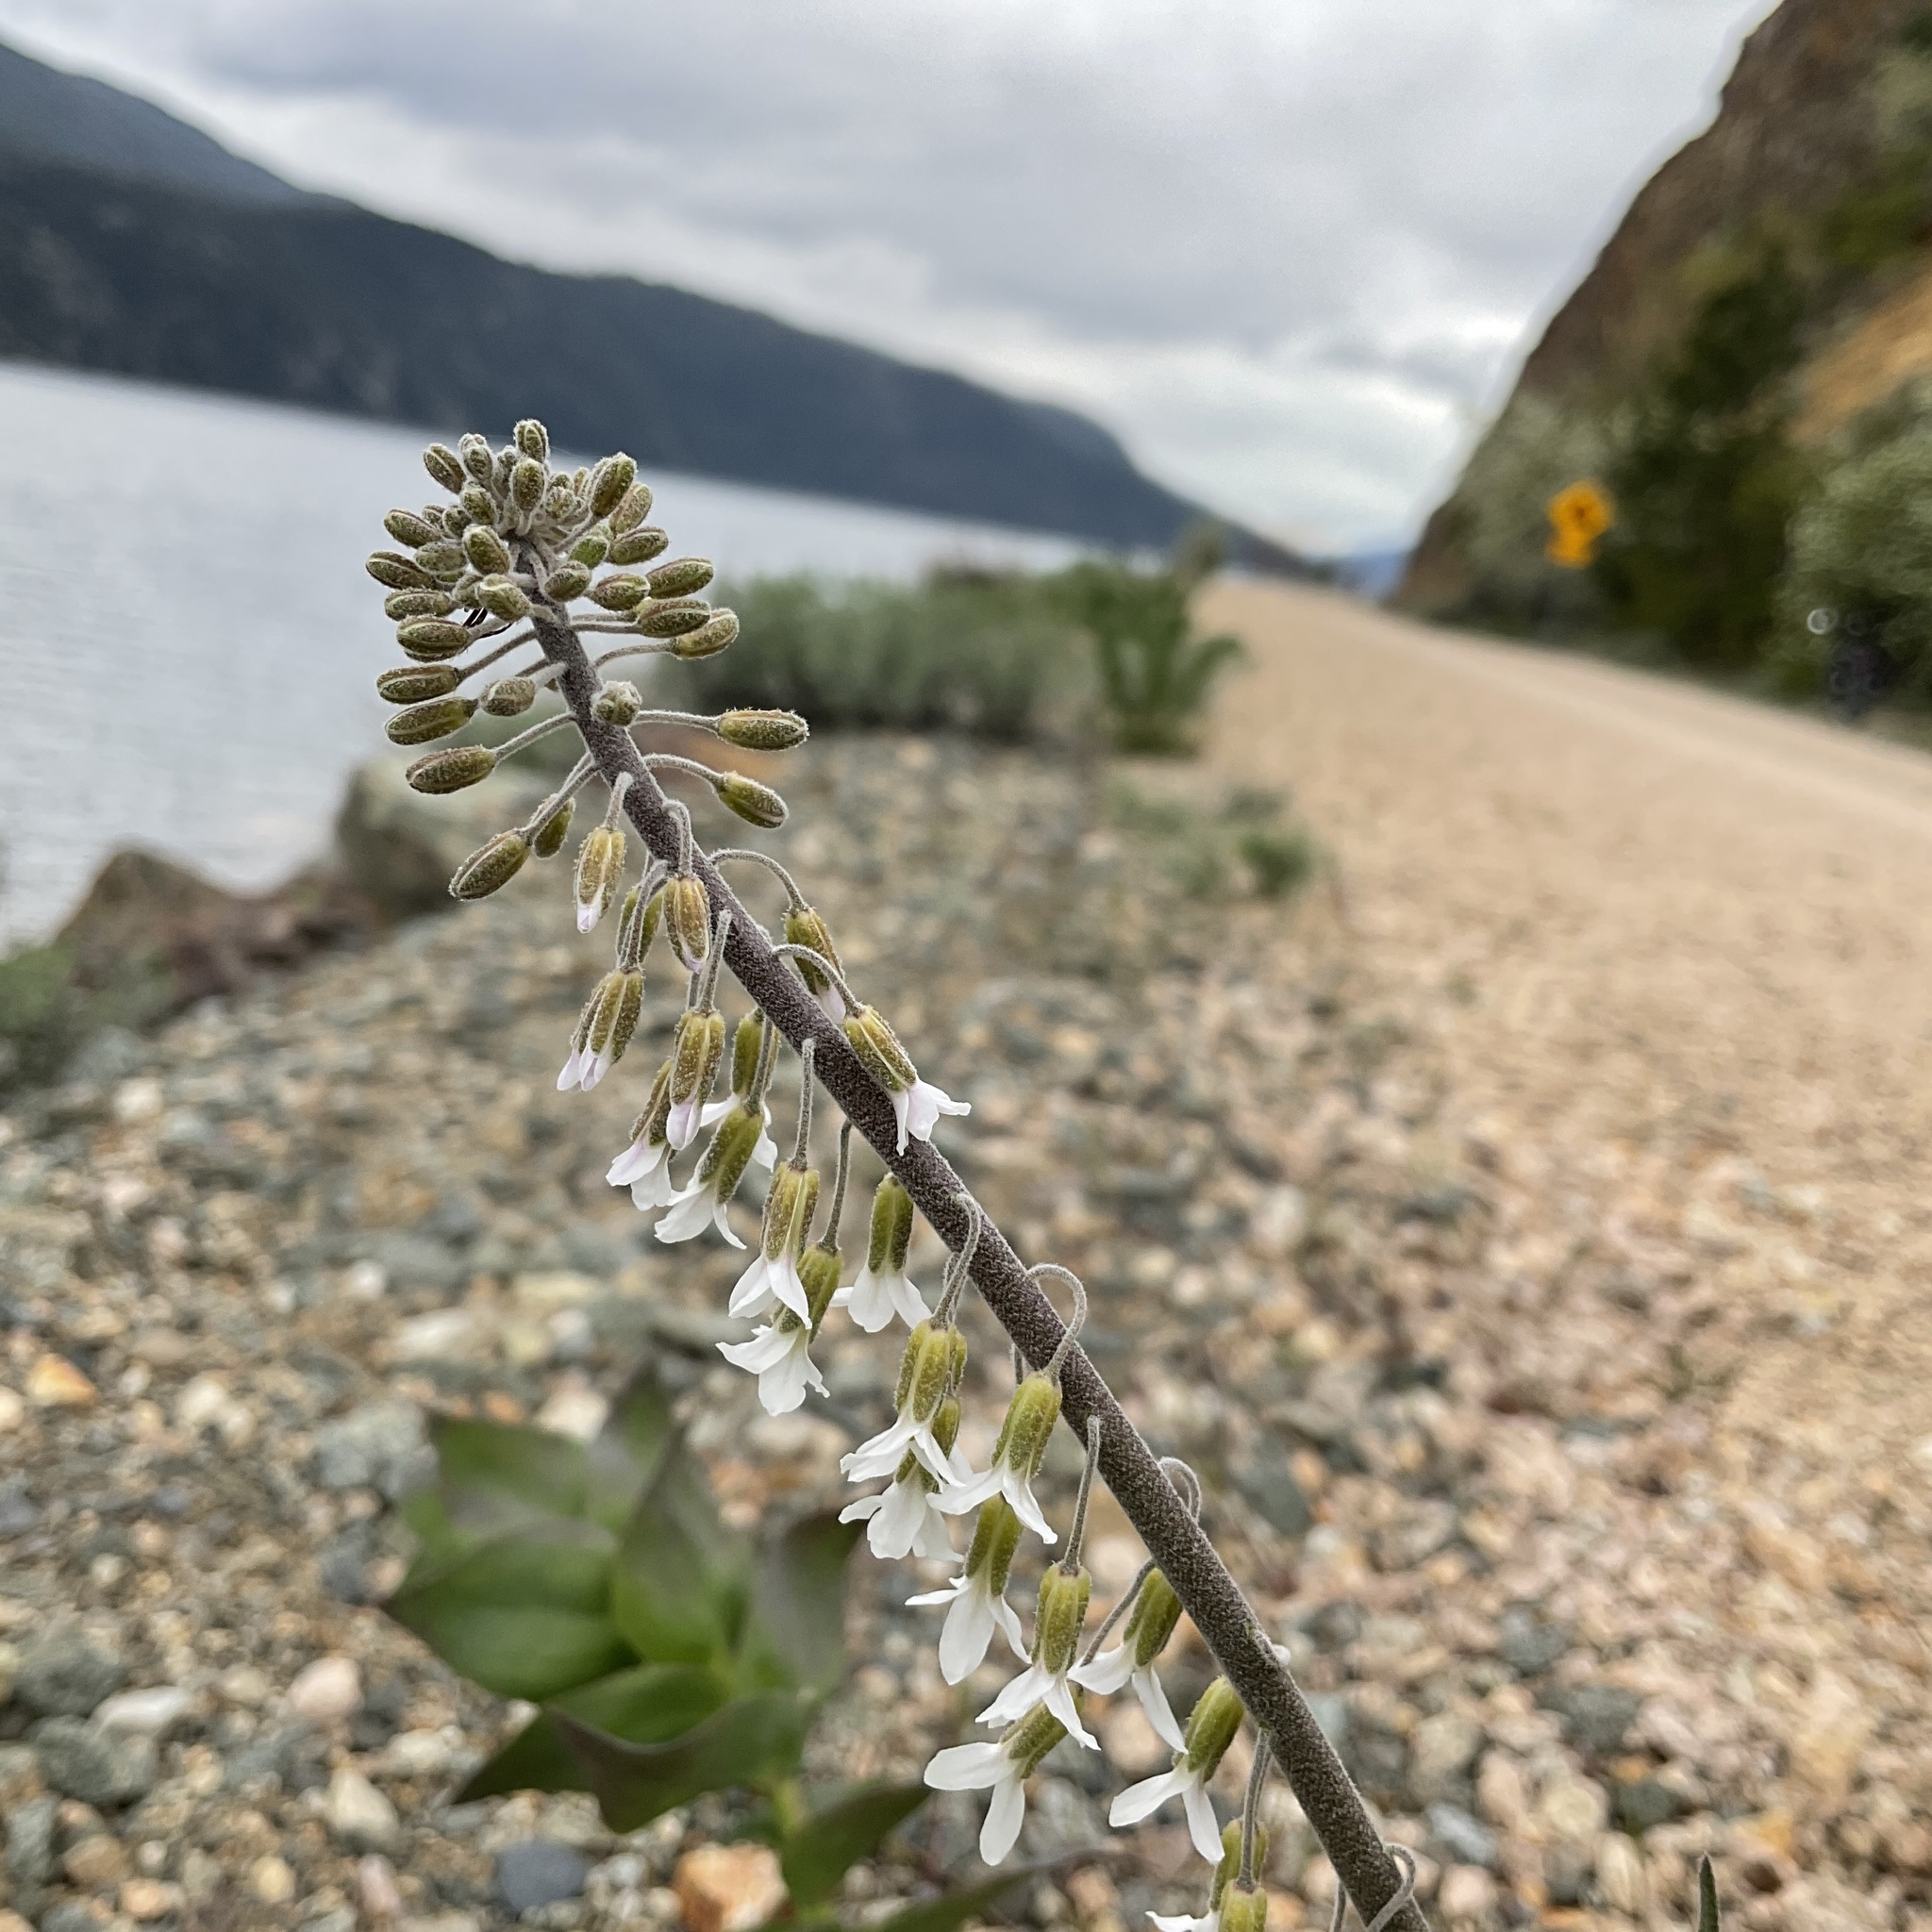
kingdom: Plantae
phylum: Tracheophyta
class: Magnoliopsida
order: Brassicales
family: Brassicaceae
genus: Boechera
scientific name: Boechera retrofracta
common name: Dangling suncress
